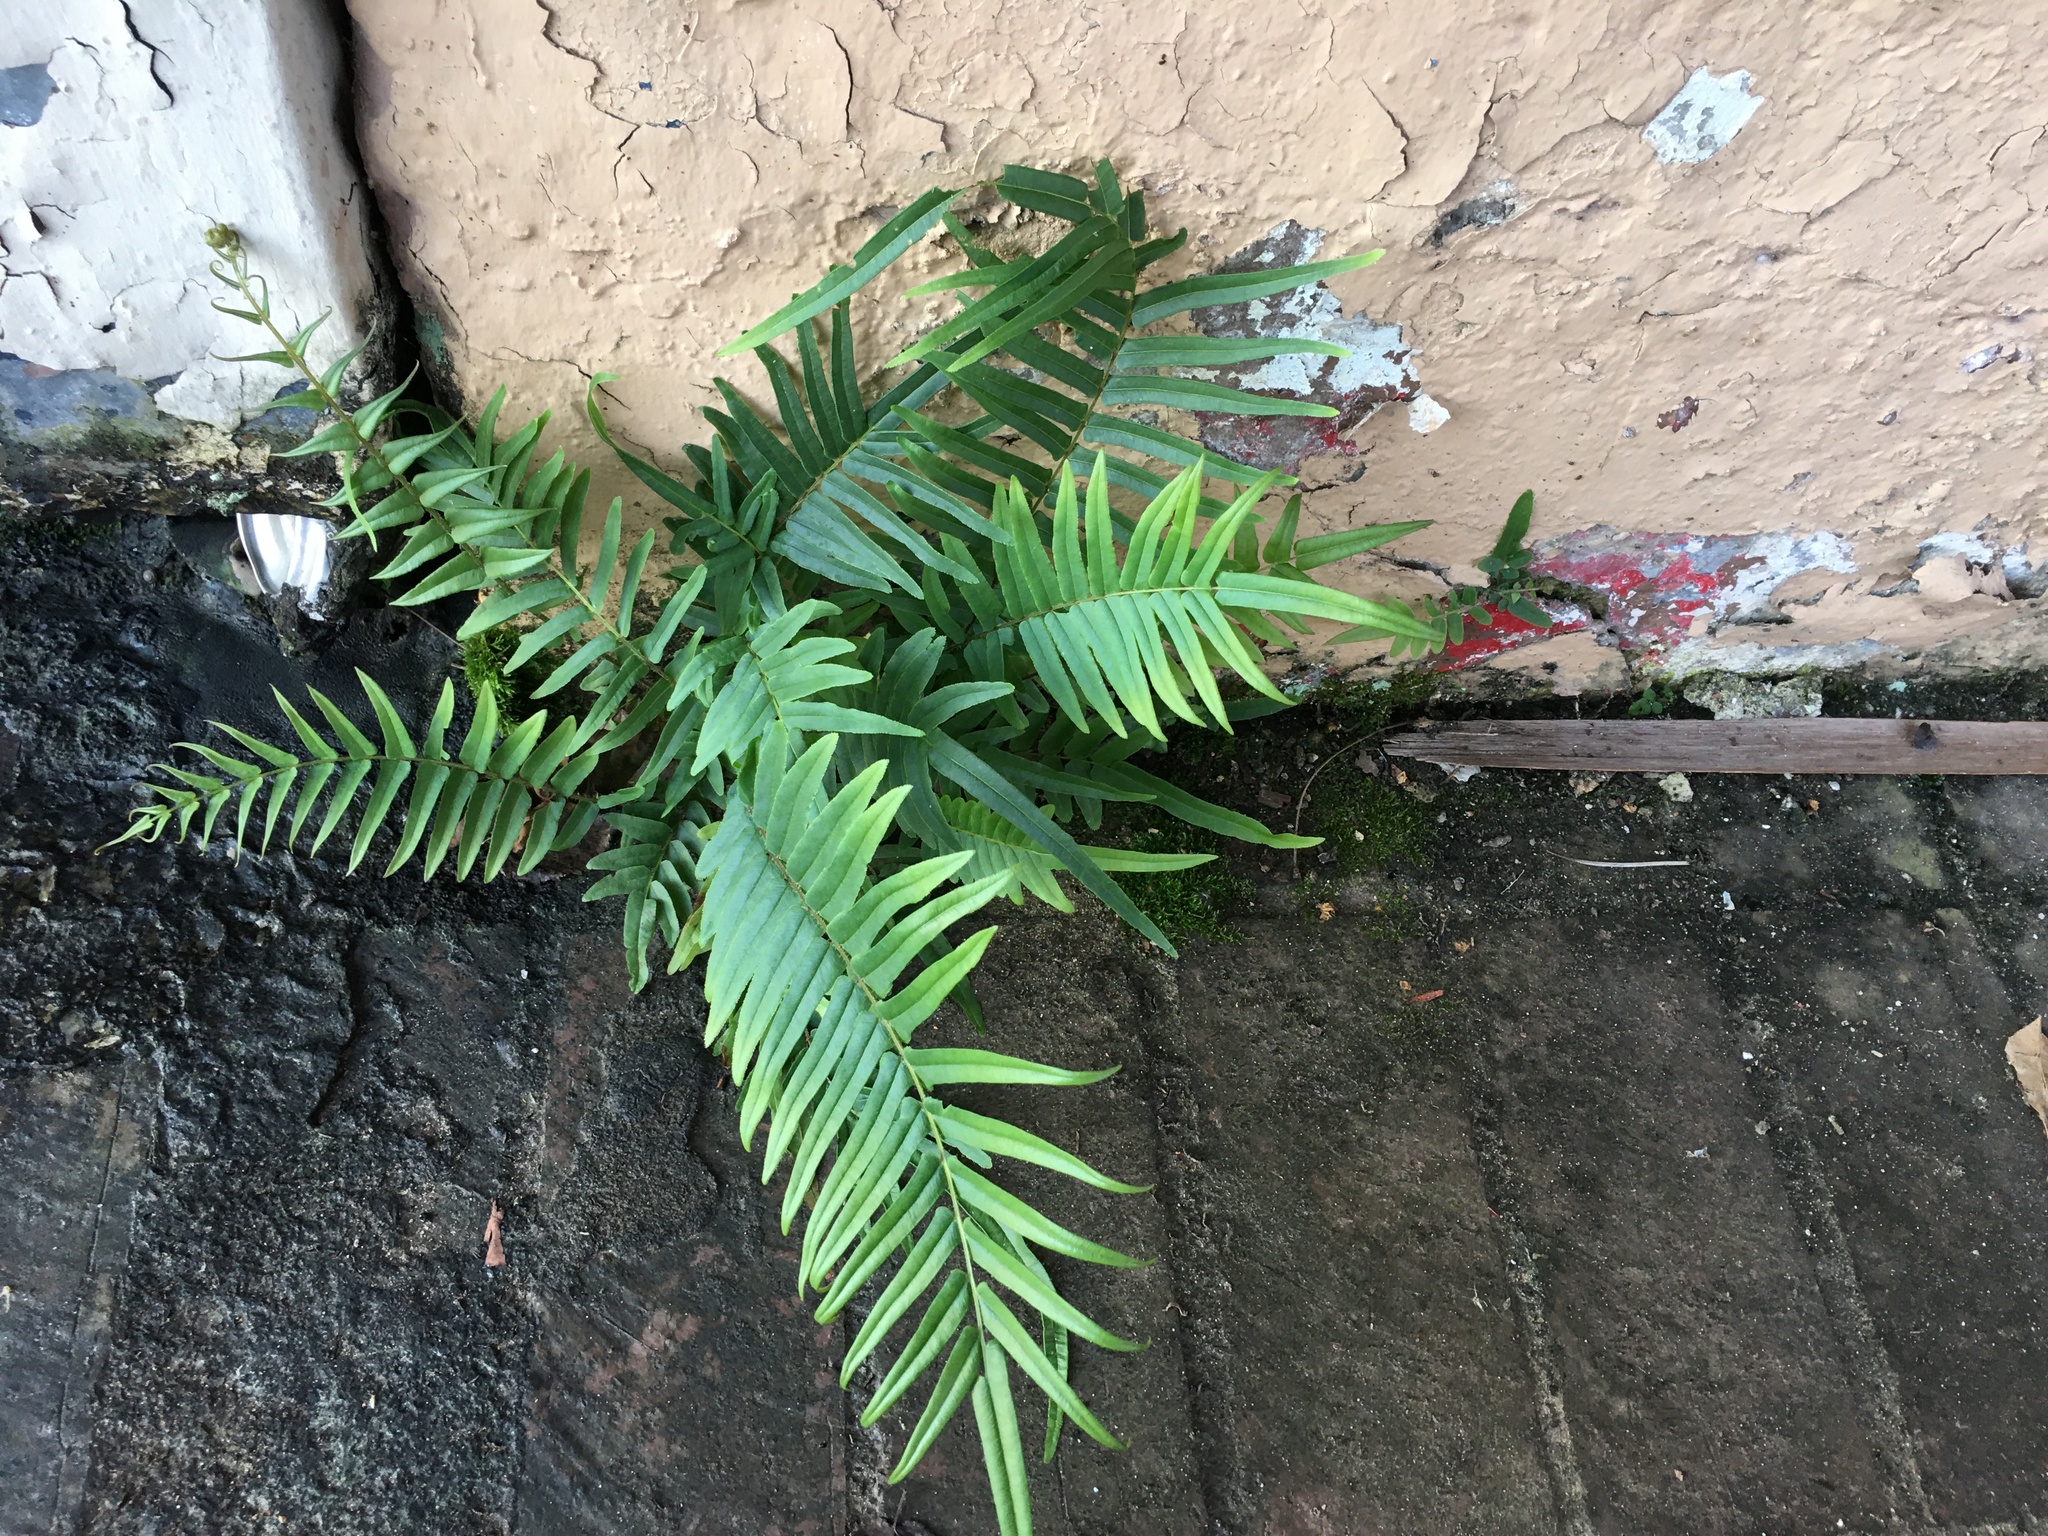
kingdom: Plantae
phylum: Tracheophyta
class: Polypodiopsida
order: Polypodiales
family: Pteridaceae
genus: Pteris
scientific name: Pteris vittata
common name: Ladder brake
